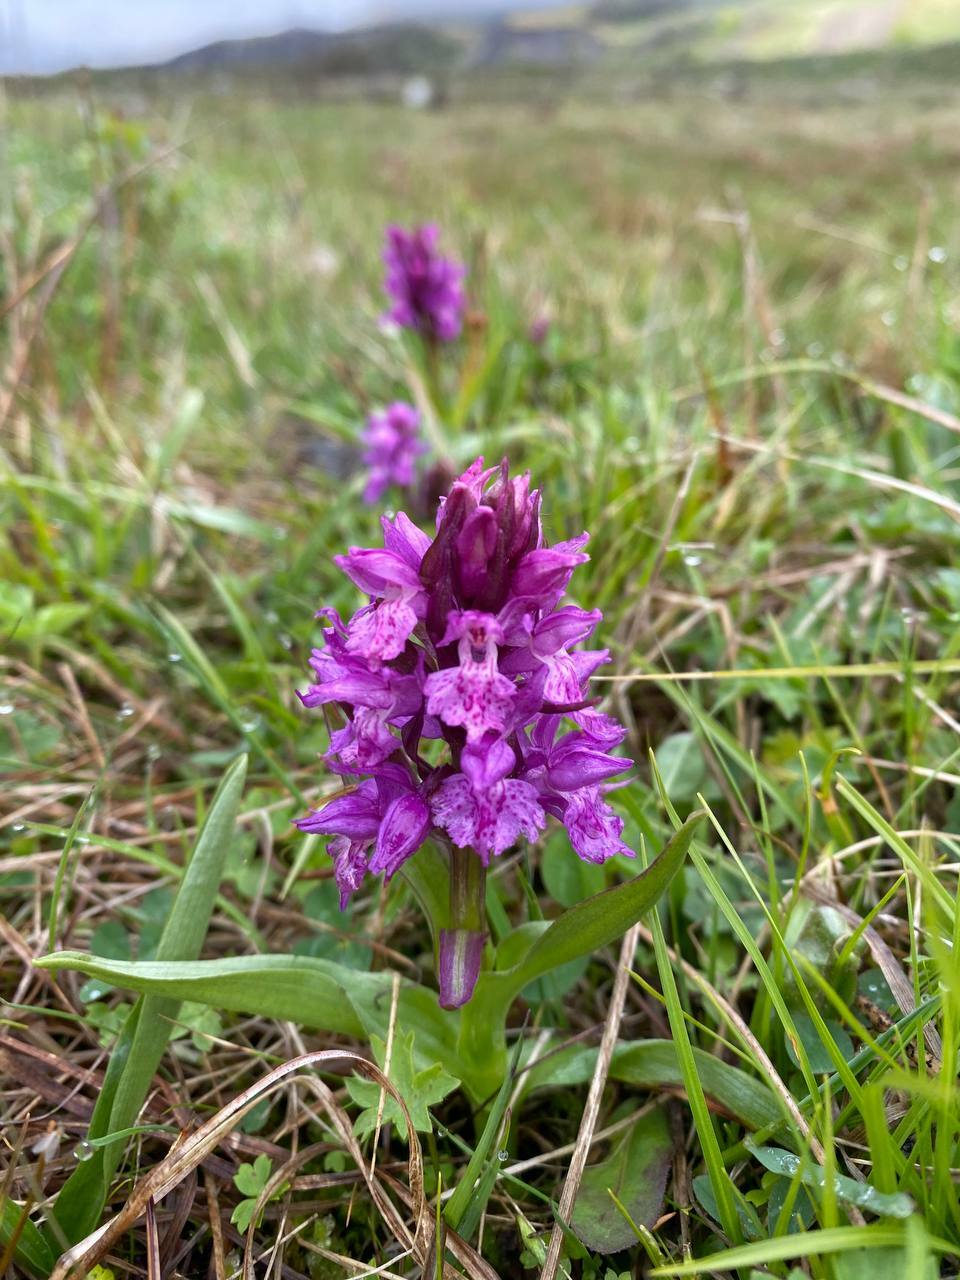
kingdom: Plantae
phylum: Tracheophyta
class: Liliopsida
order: Asparagales
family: Orchidaceae
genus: Dactylorhiza
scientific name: Dactylorhiza euxina
